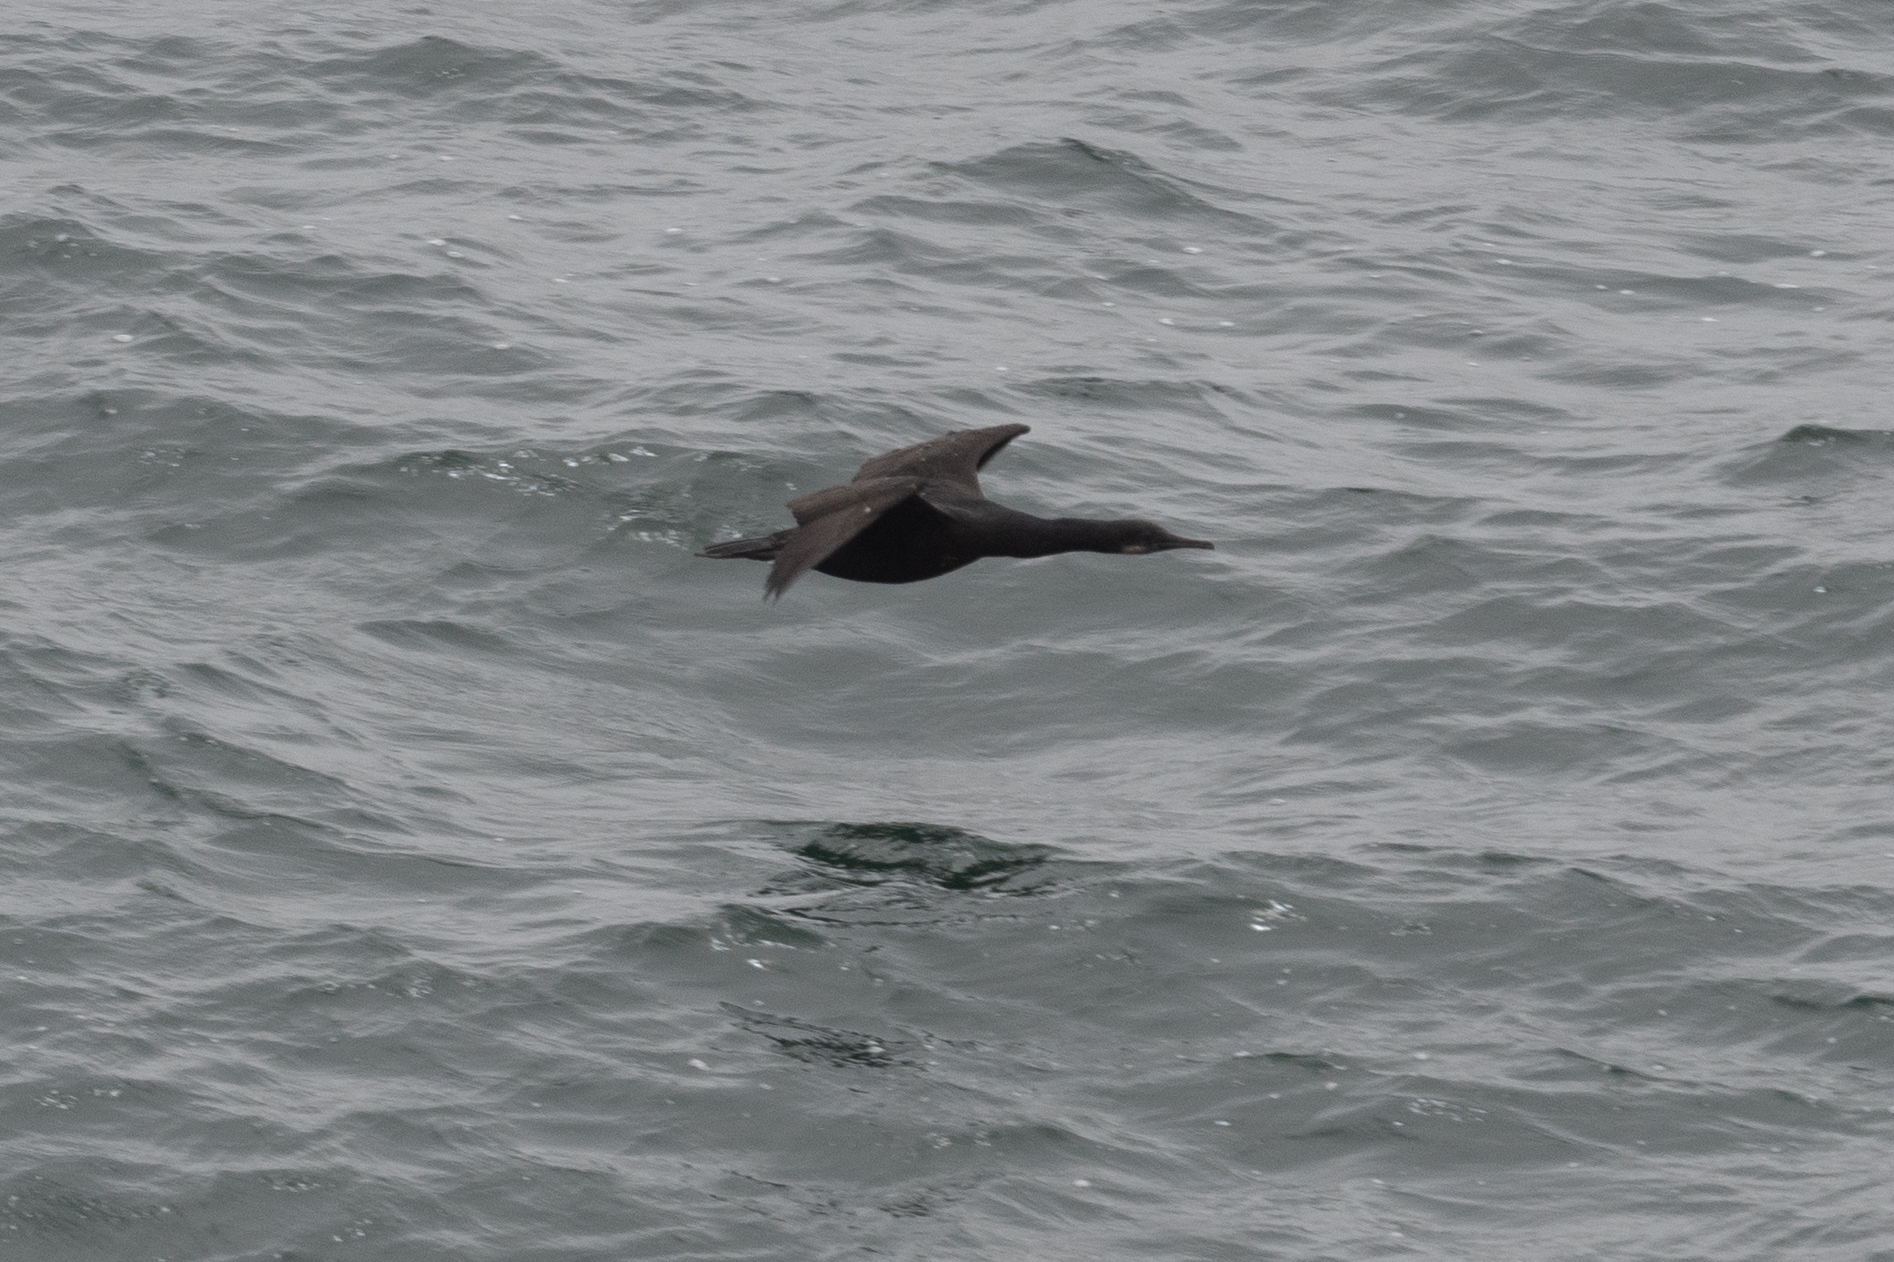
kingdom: Animalia
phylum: Chordata
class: Aves
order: Suliformes
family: Phalacrocoracidae
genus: Urile
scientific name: Urile penicillatus
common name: Brandt's cormorant
